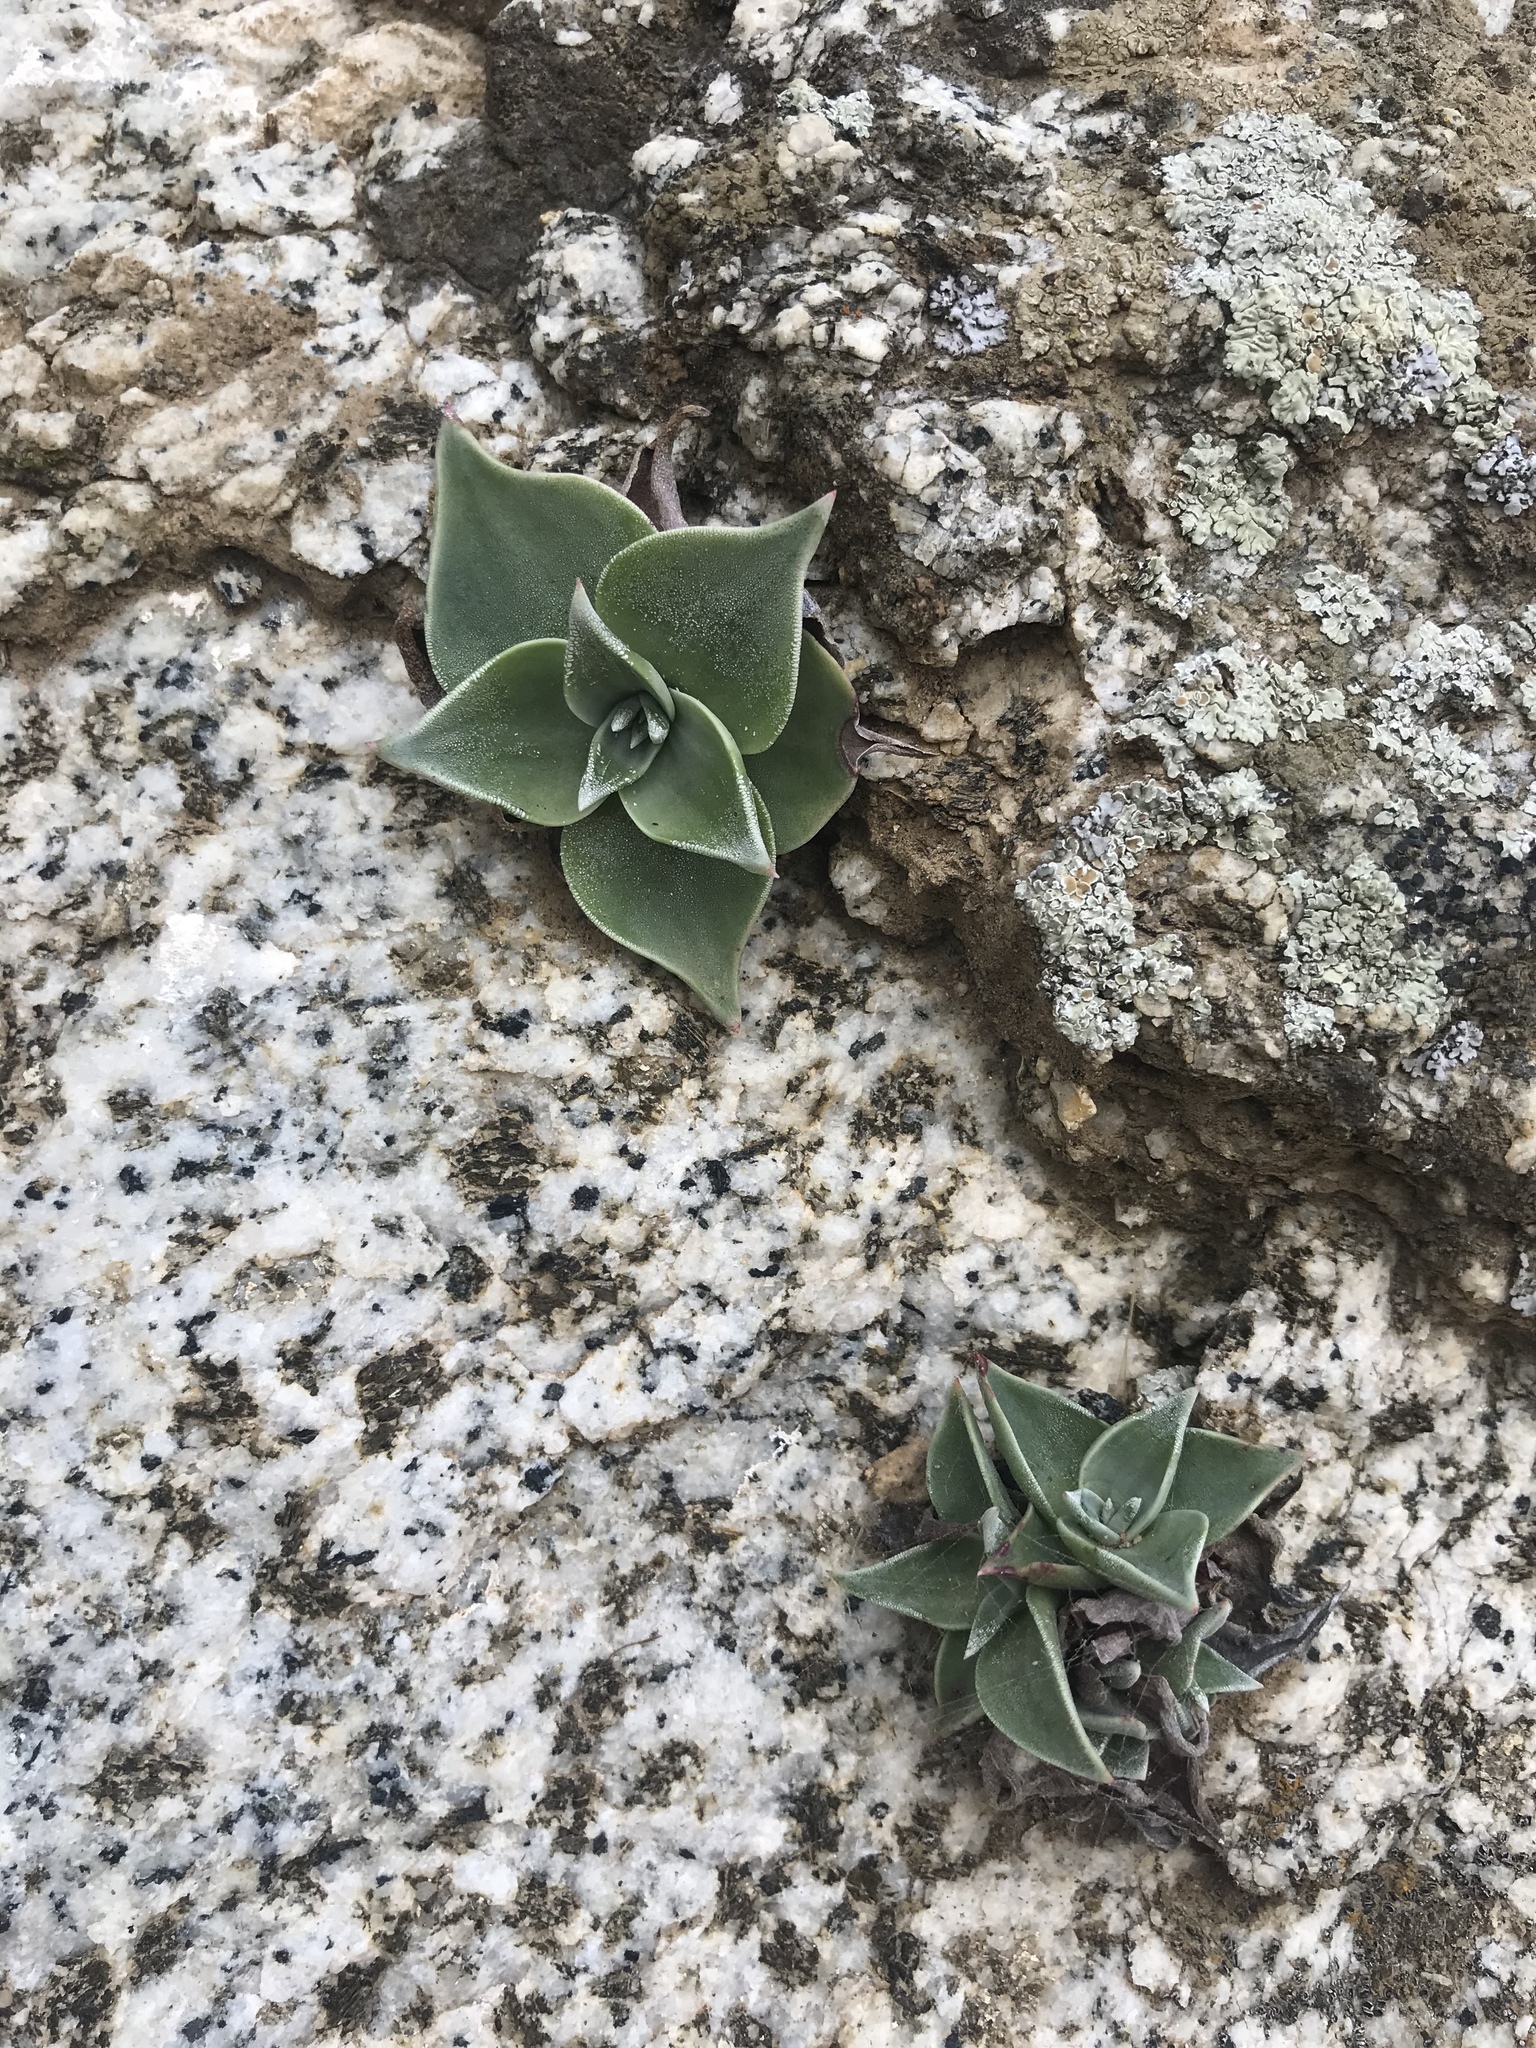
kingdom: Plantae
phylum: Tracheophyta
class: Magnoliopsida
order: Saxifragales
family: Crassulaceae
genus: Dudleya
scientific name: Dudleya cymosa
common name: Canyon dudleya
